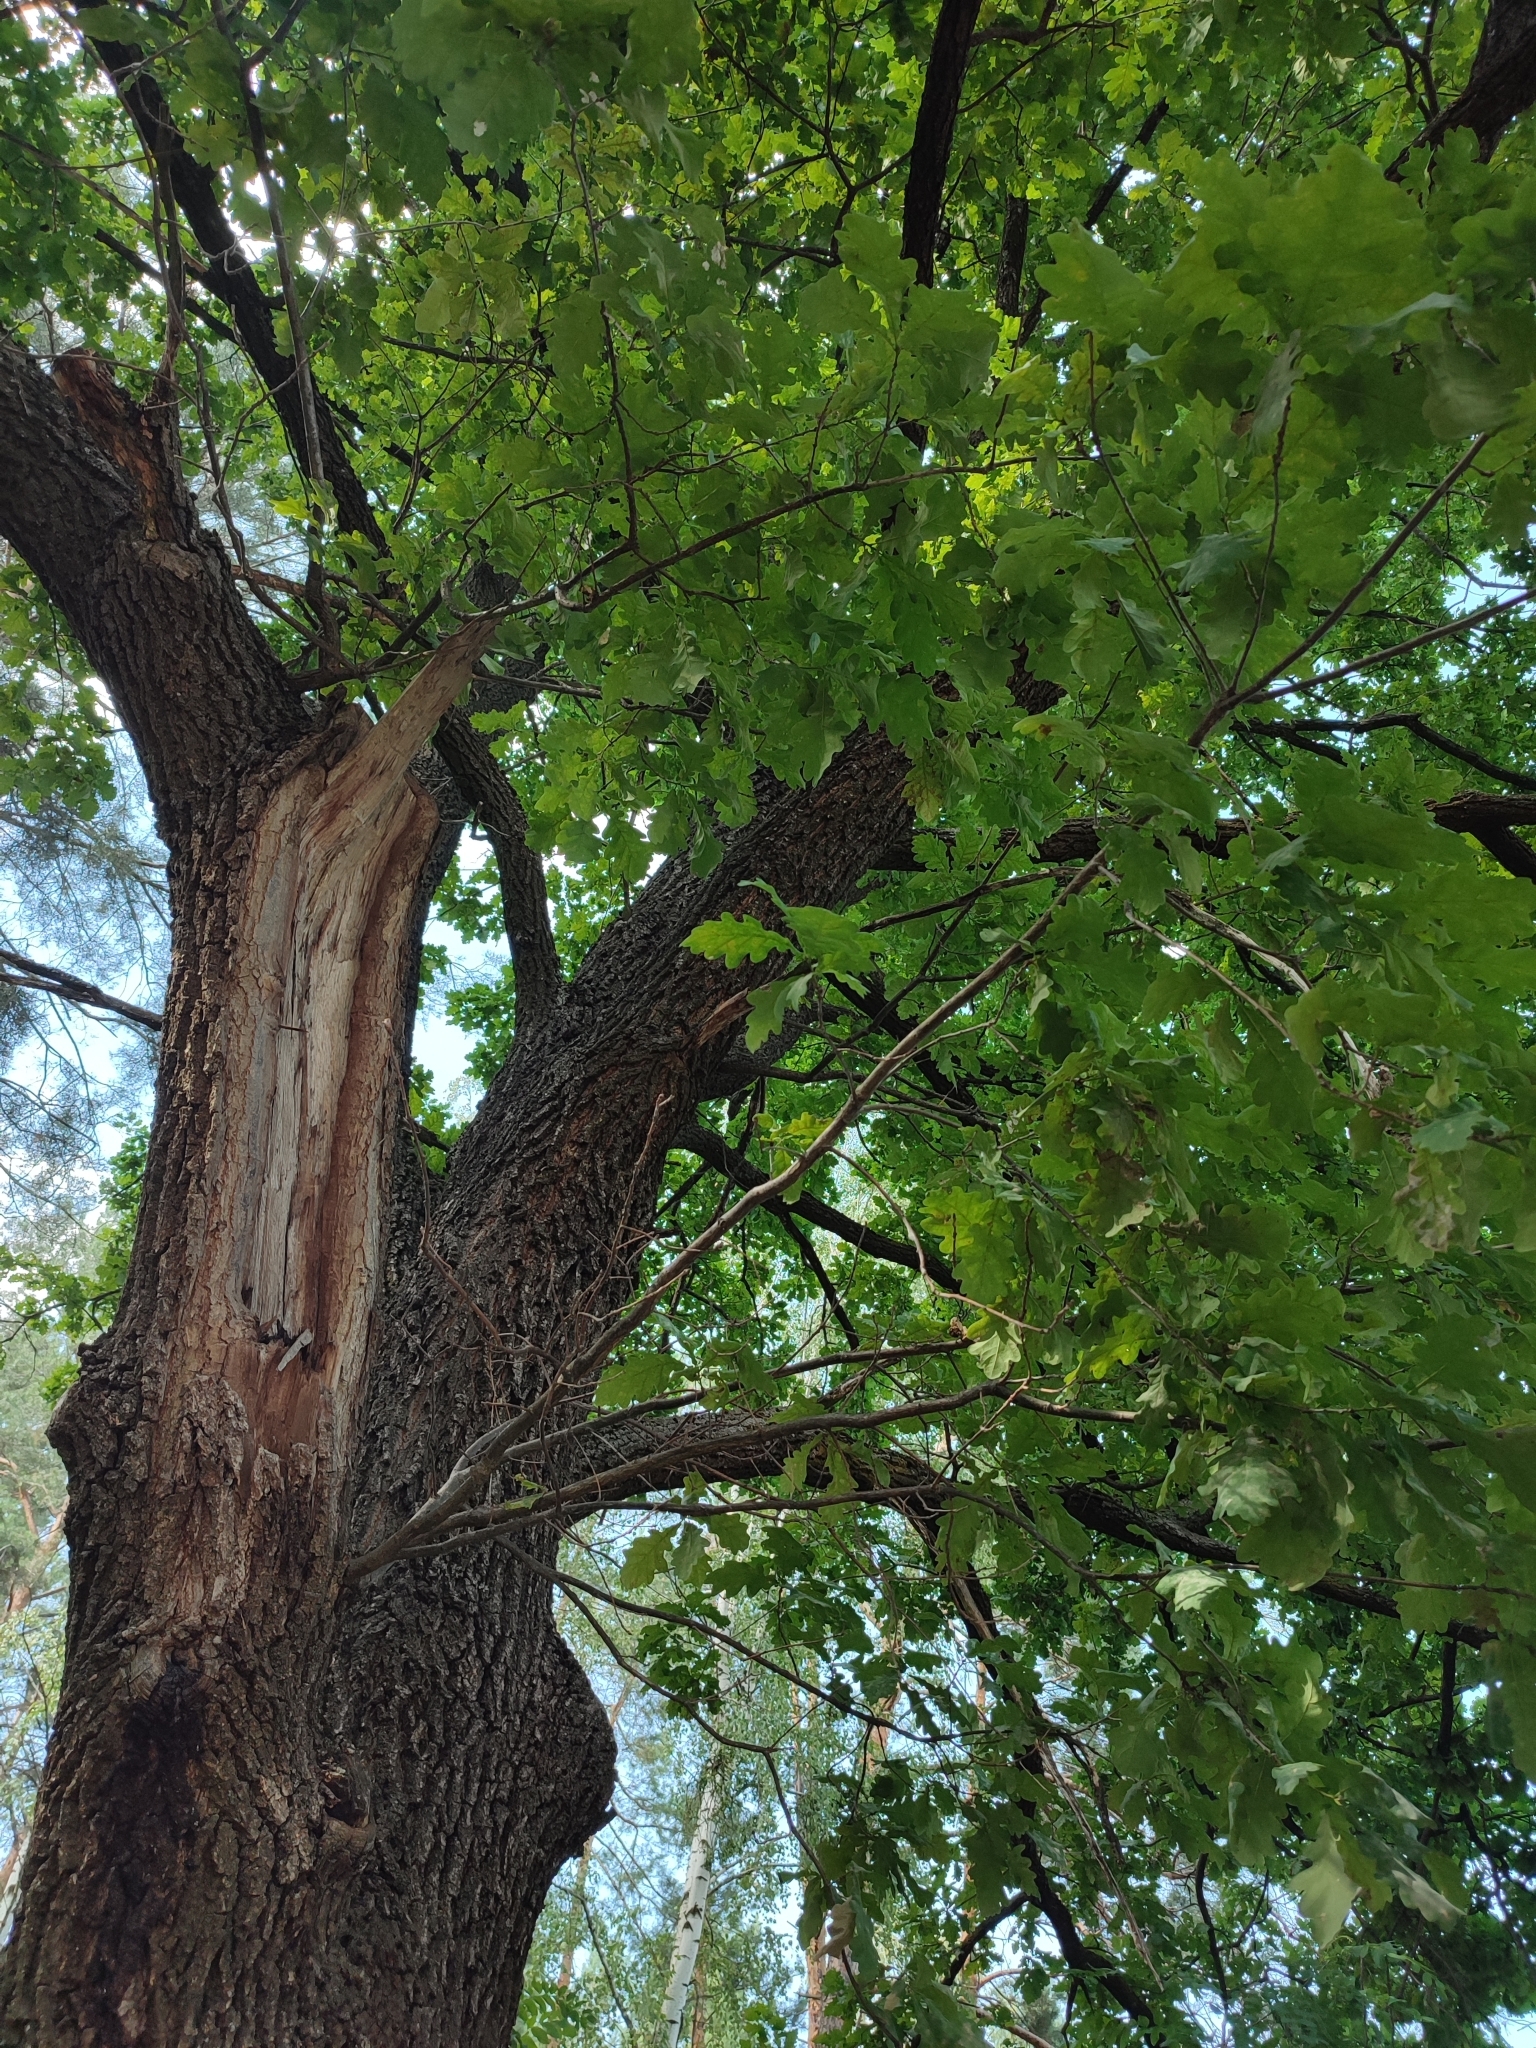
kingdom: Plantae
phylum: Tracheophyta
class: Magnoliopsida
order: Fagales
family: Fagaceae
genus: Quercus
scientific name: Quercus robur
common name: Pedunculate oak
